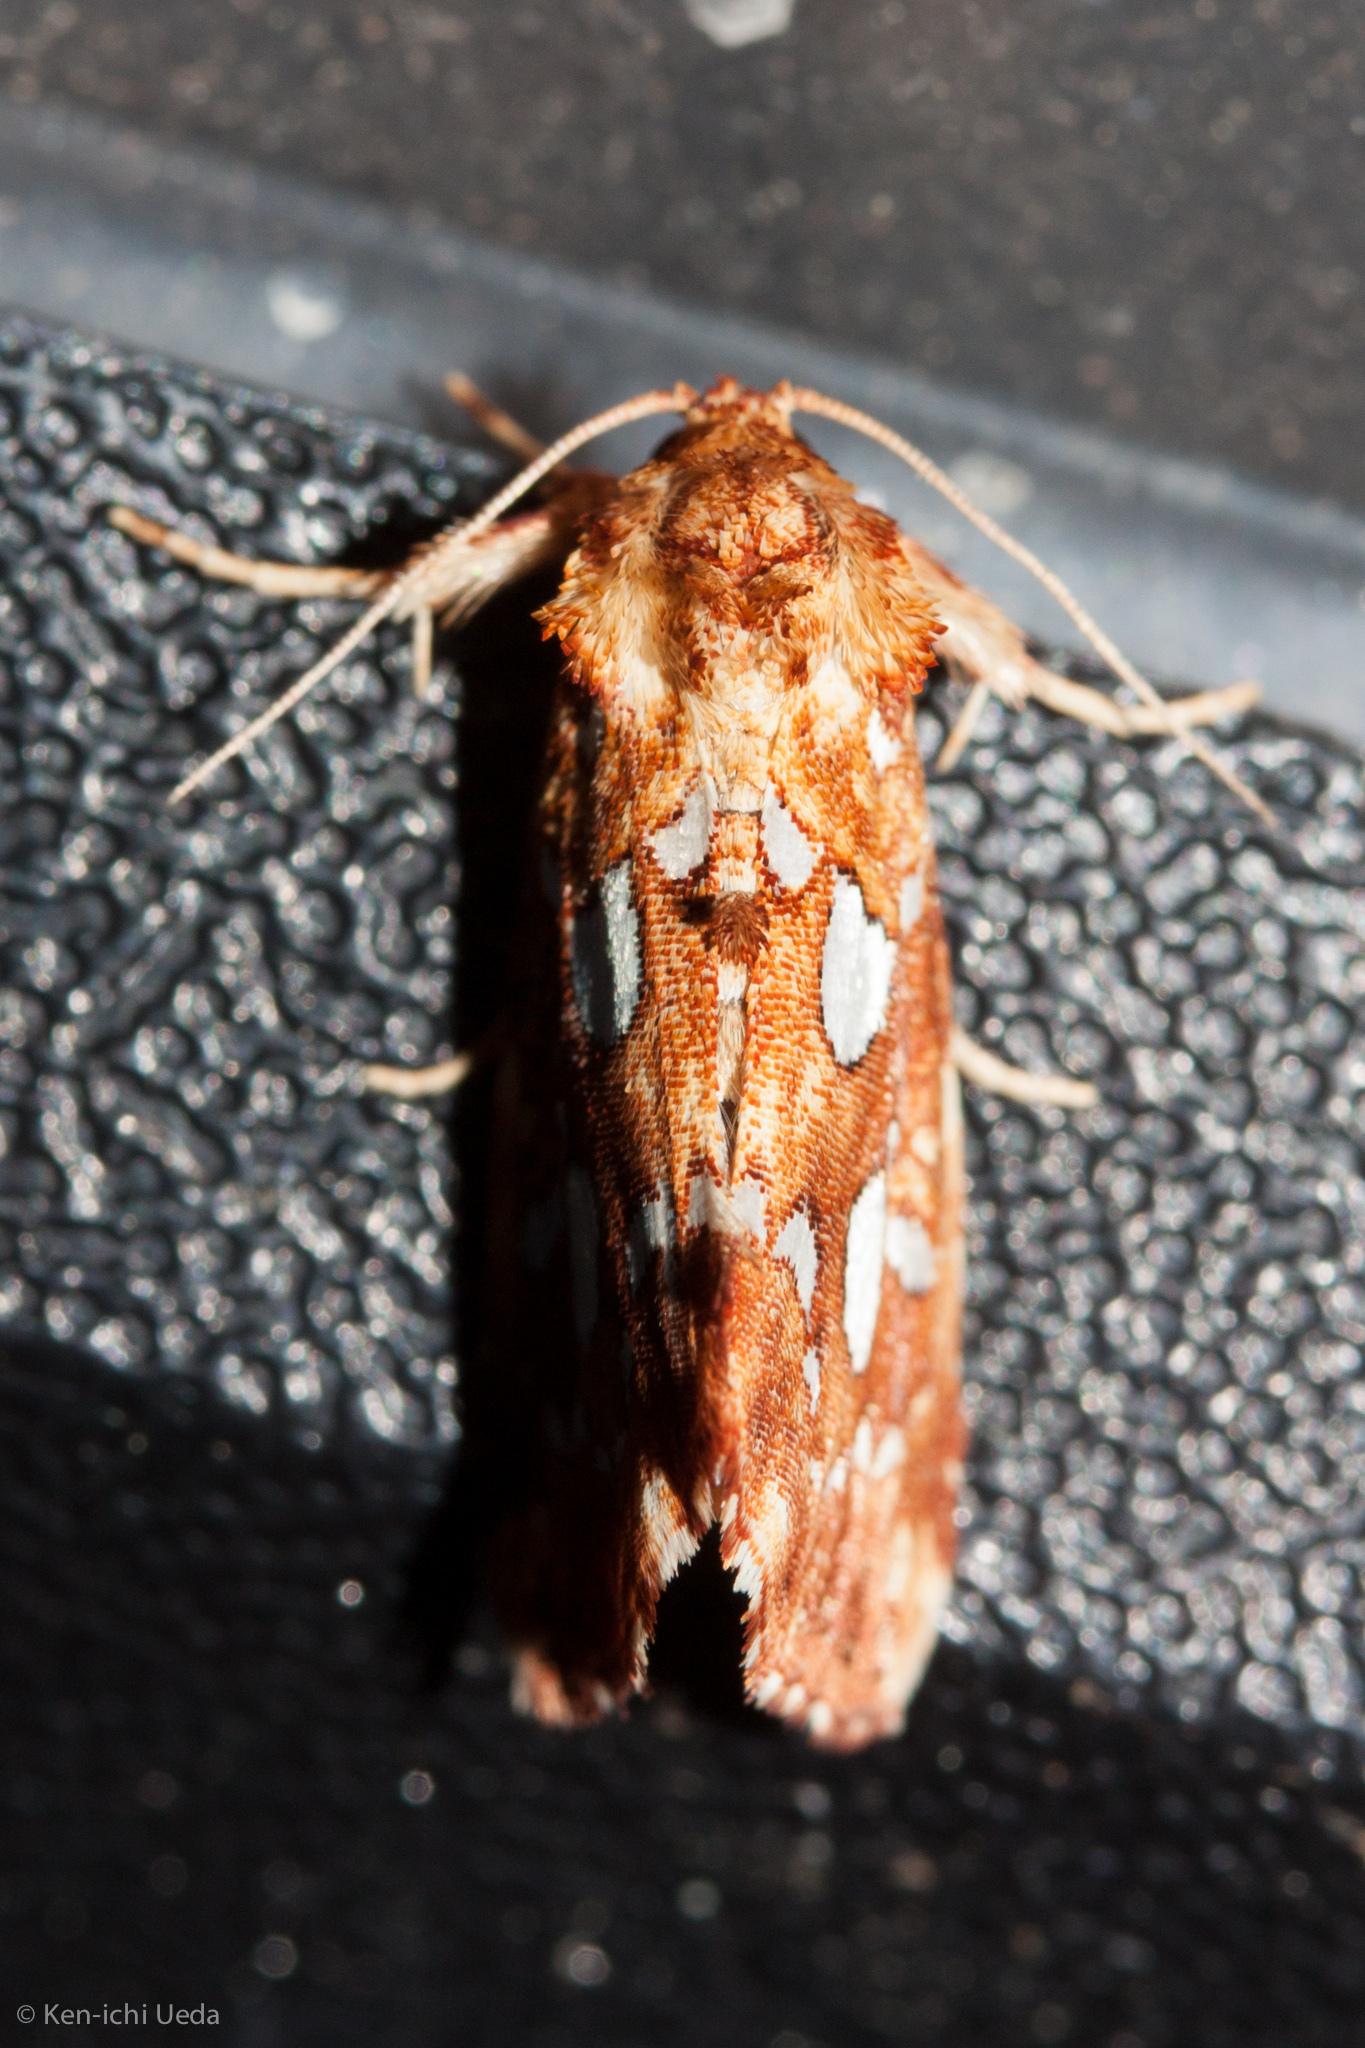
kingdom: Animalia
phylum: Arthropoda
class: Insecta
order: Lepidoptera
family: Noctuidae
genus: Callopistria
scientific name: Callopistria cordata
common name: Silver-spotted fern moth
